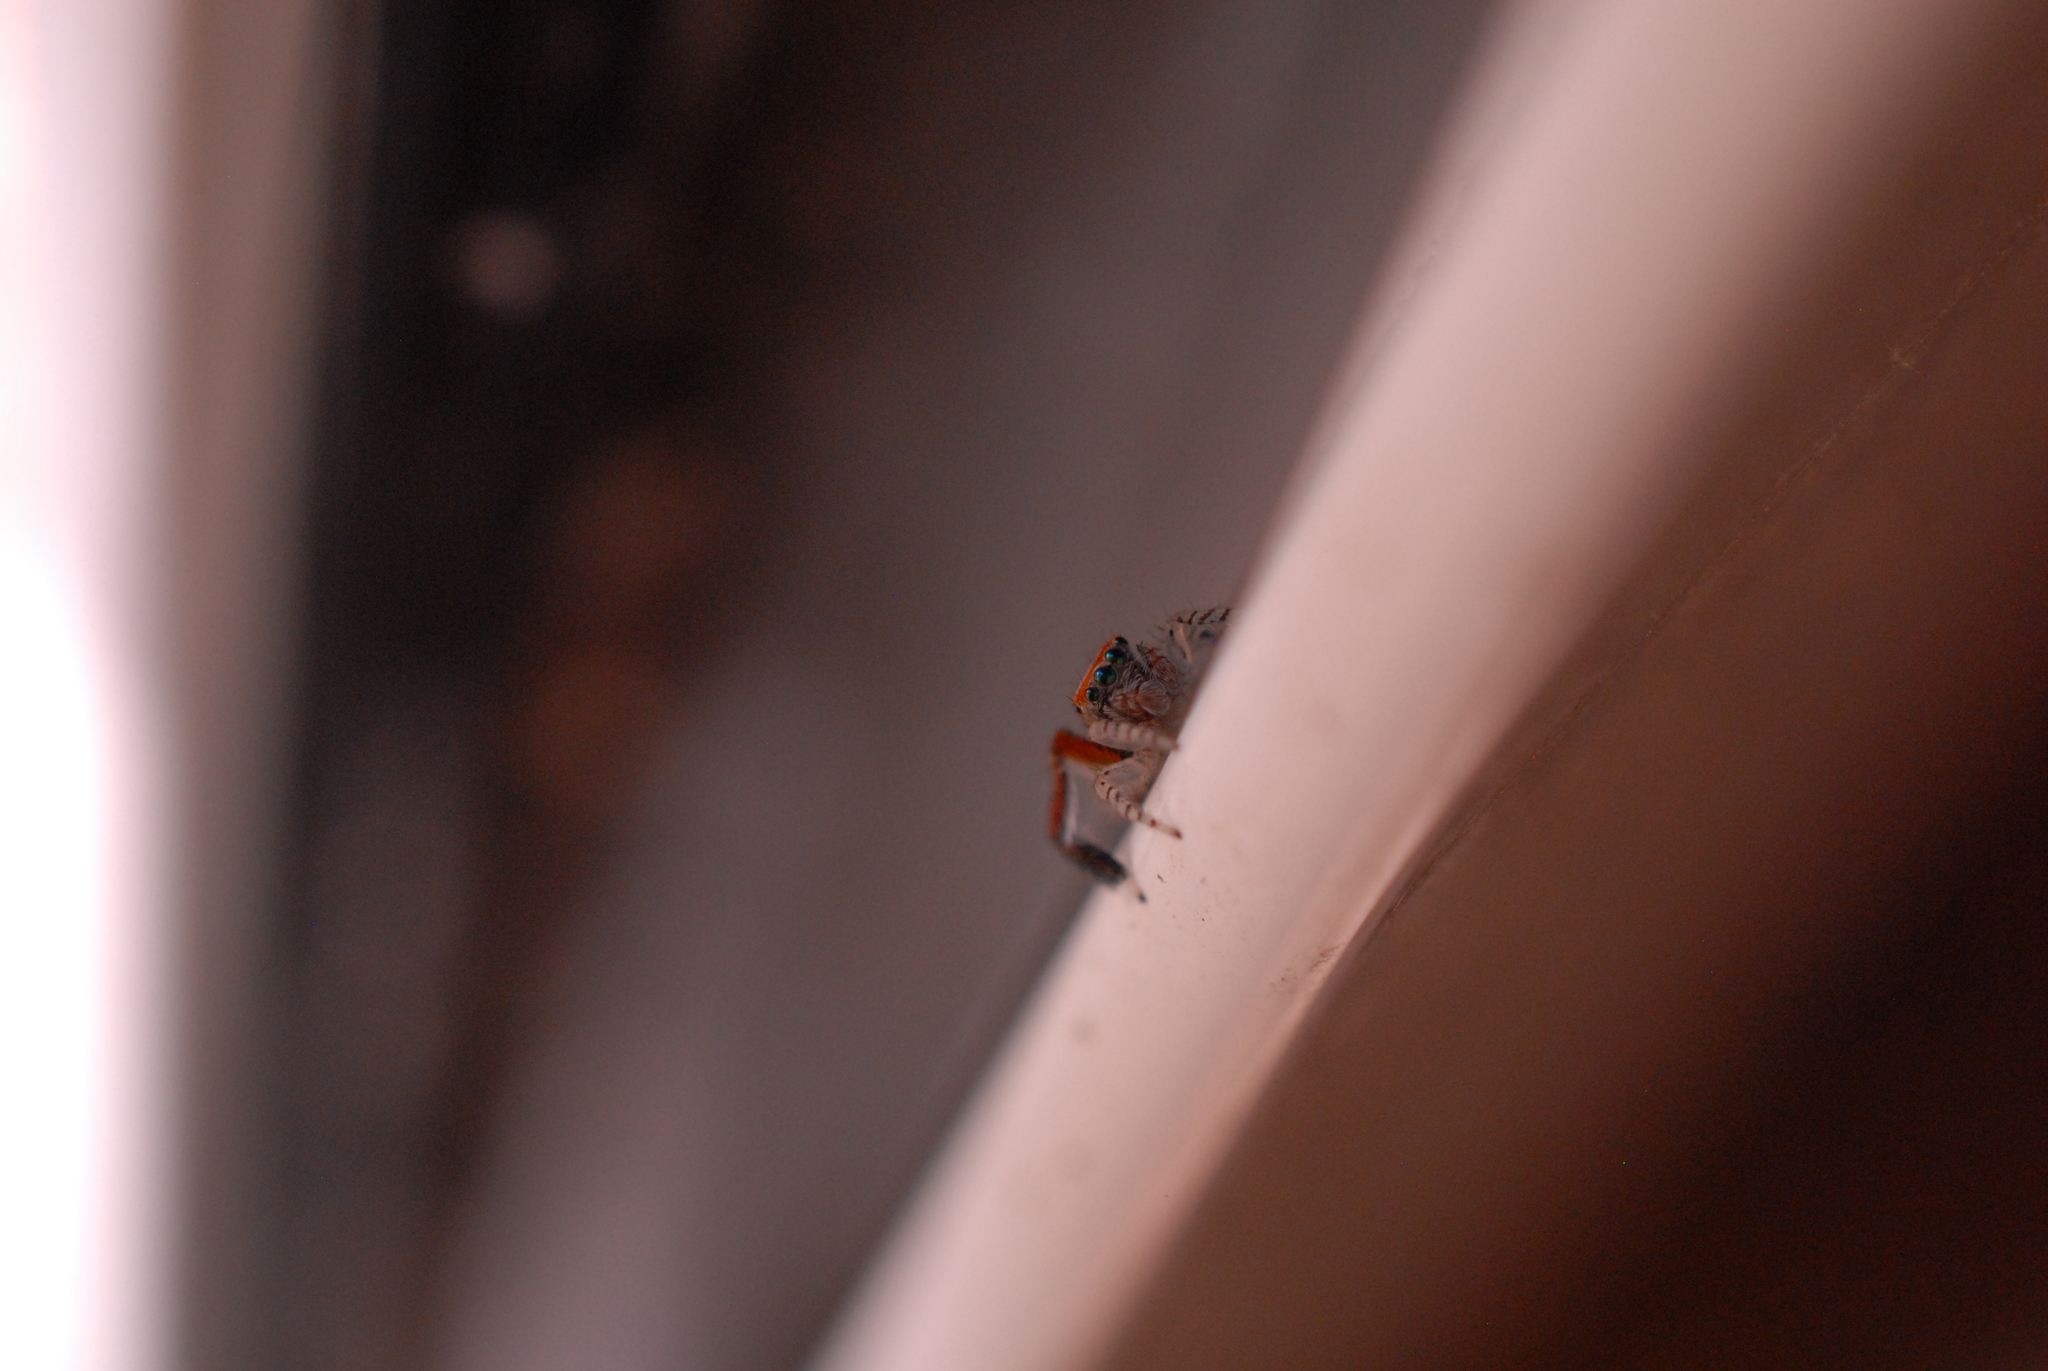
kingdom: Animalia
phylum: Arthropoda
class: Arachnida
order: Araneae
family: Salticidae
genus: Saitis
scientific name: Saitis barbipes
